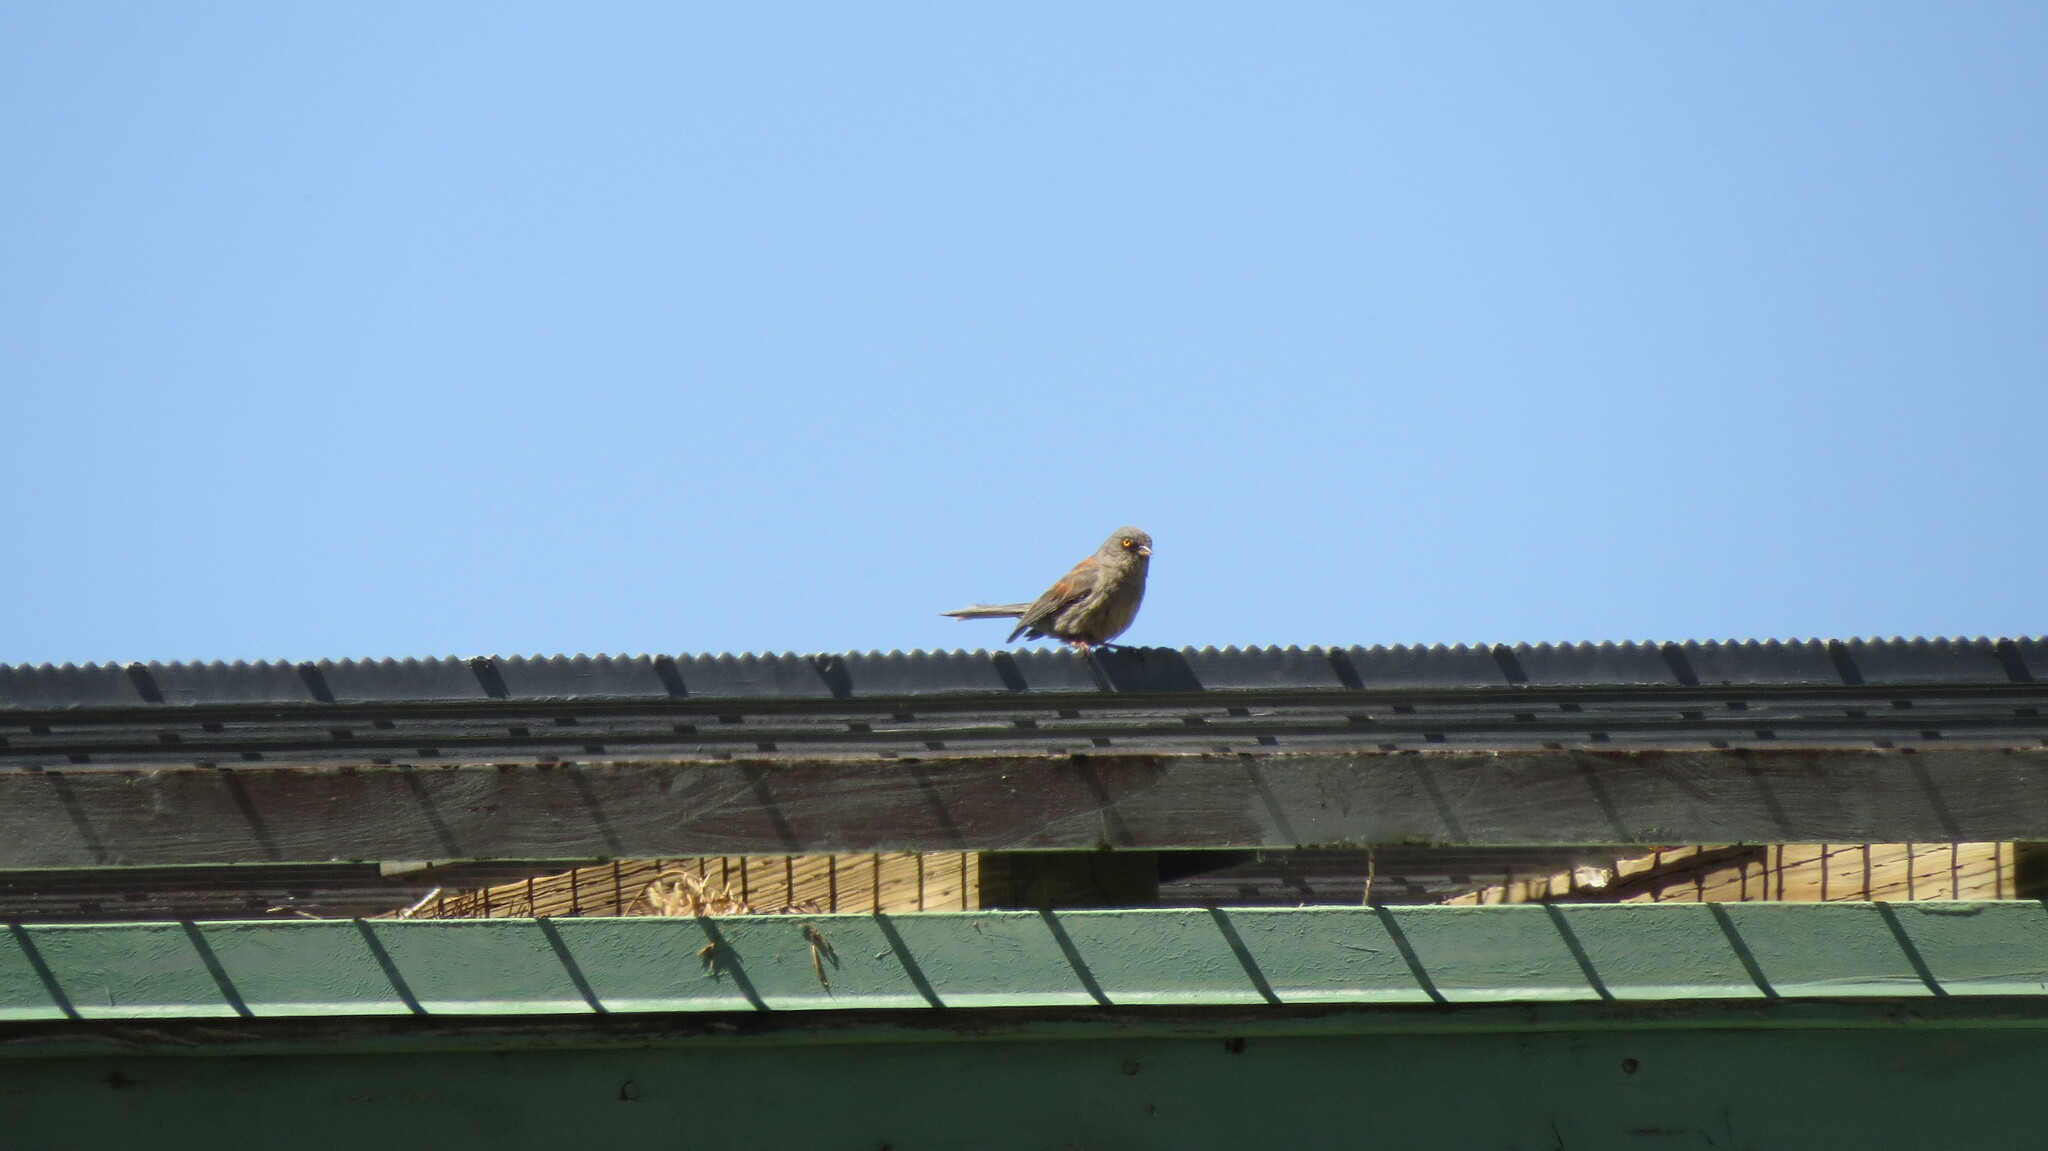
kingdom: Animalia
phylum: Chordata
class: Aves
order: Passeriformes
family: Passerellidae
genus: Junco
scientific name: Junco phaeonotus
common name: Yellow-eyed junco
